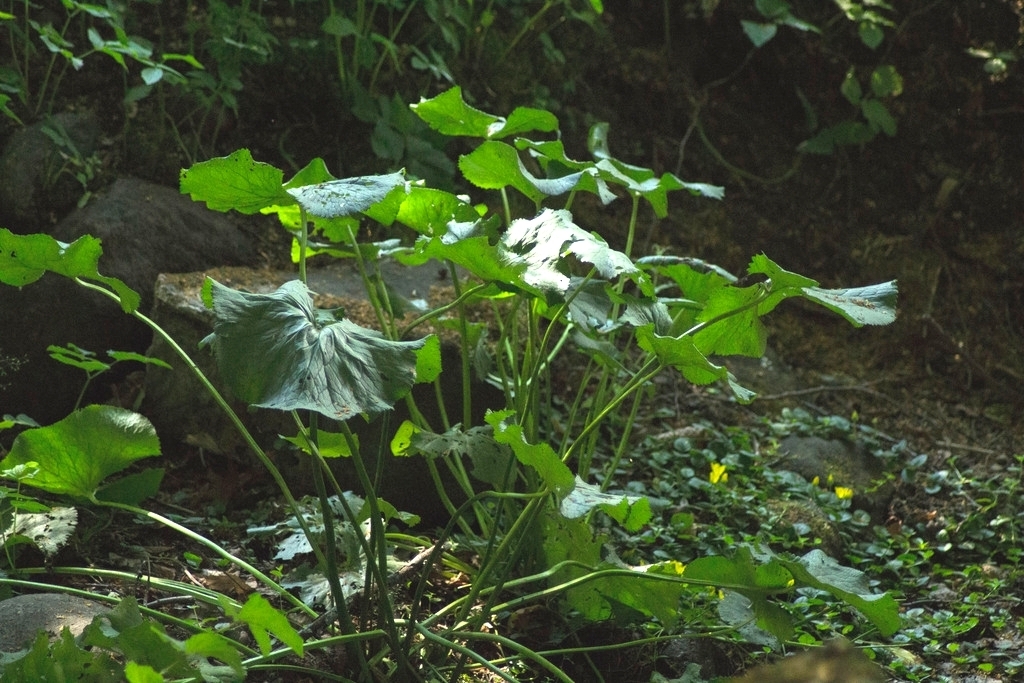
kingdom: Plantae
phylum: Tracheophyta
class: Magnoliopsida
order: Ranunculales
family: Ranunculaceae
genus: Caltha
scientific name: Caltha palustris
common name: Marsh marigold
